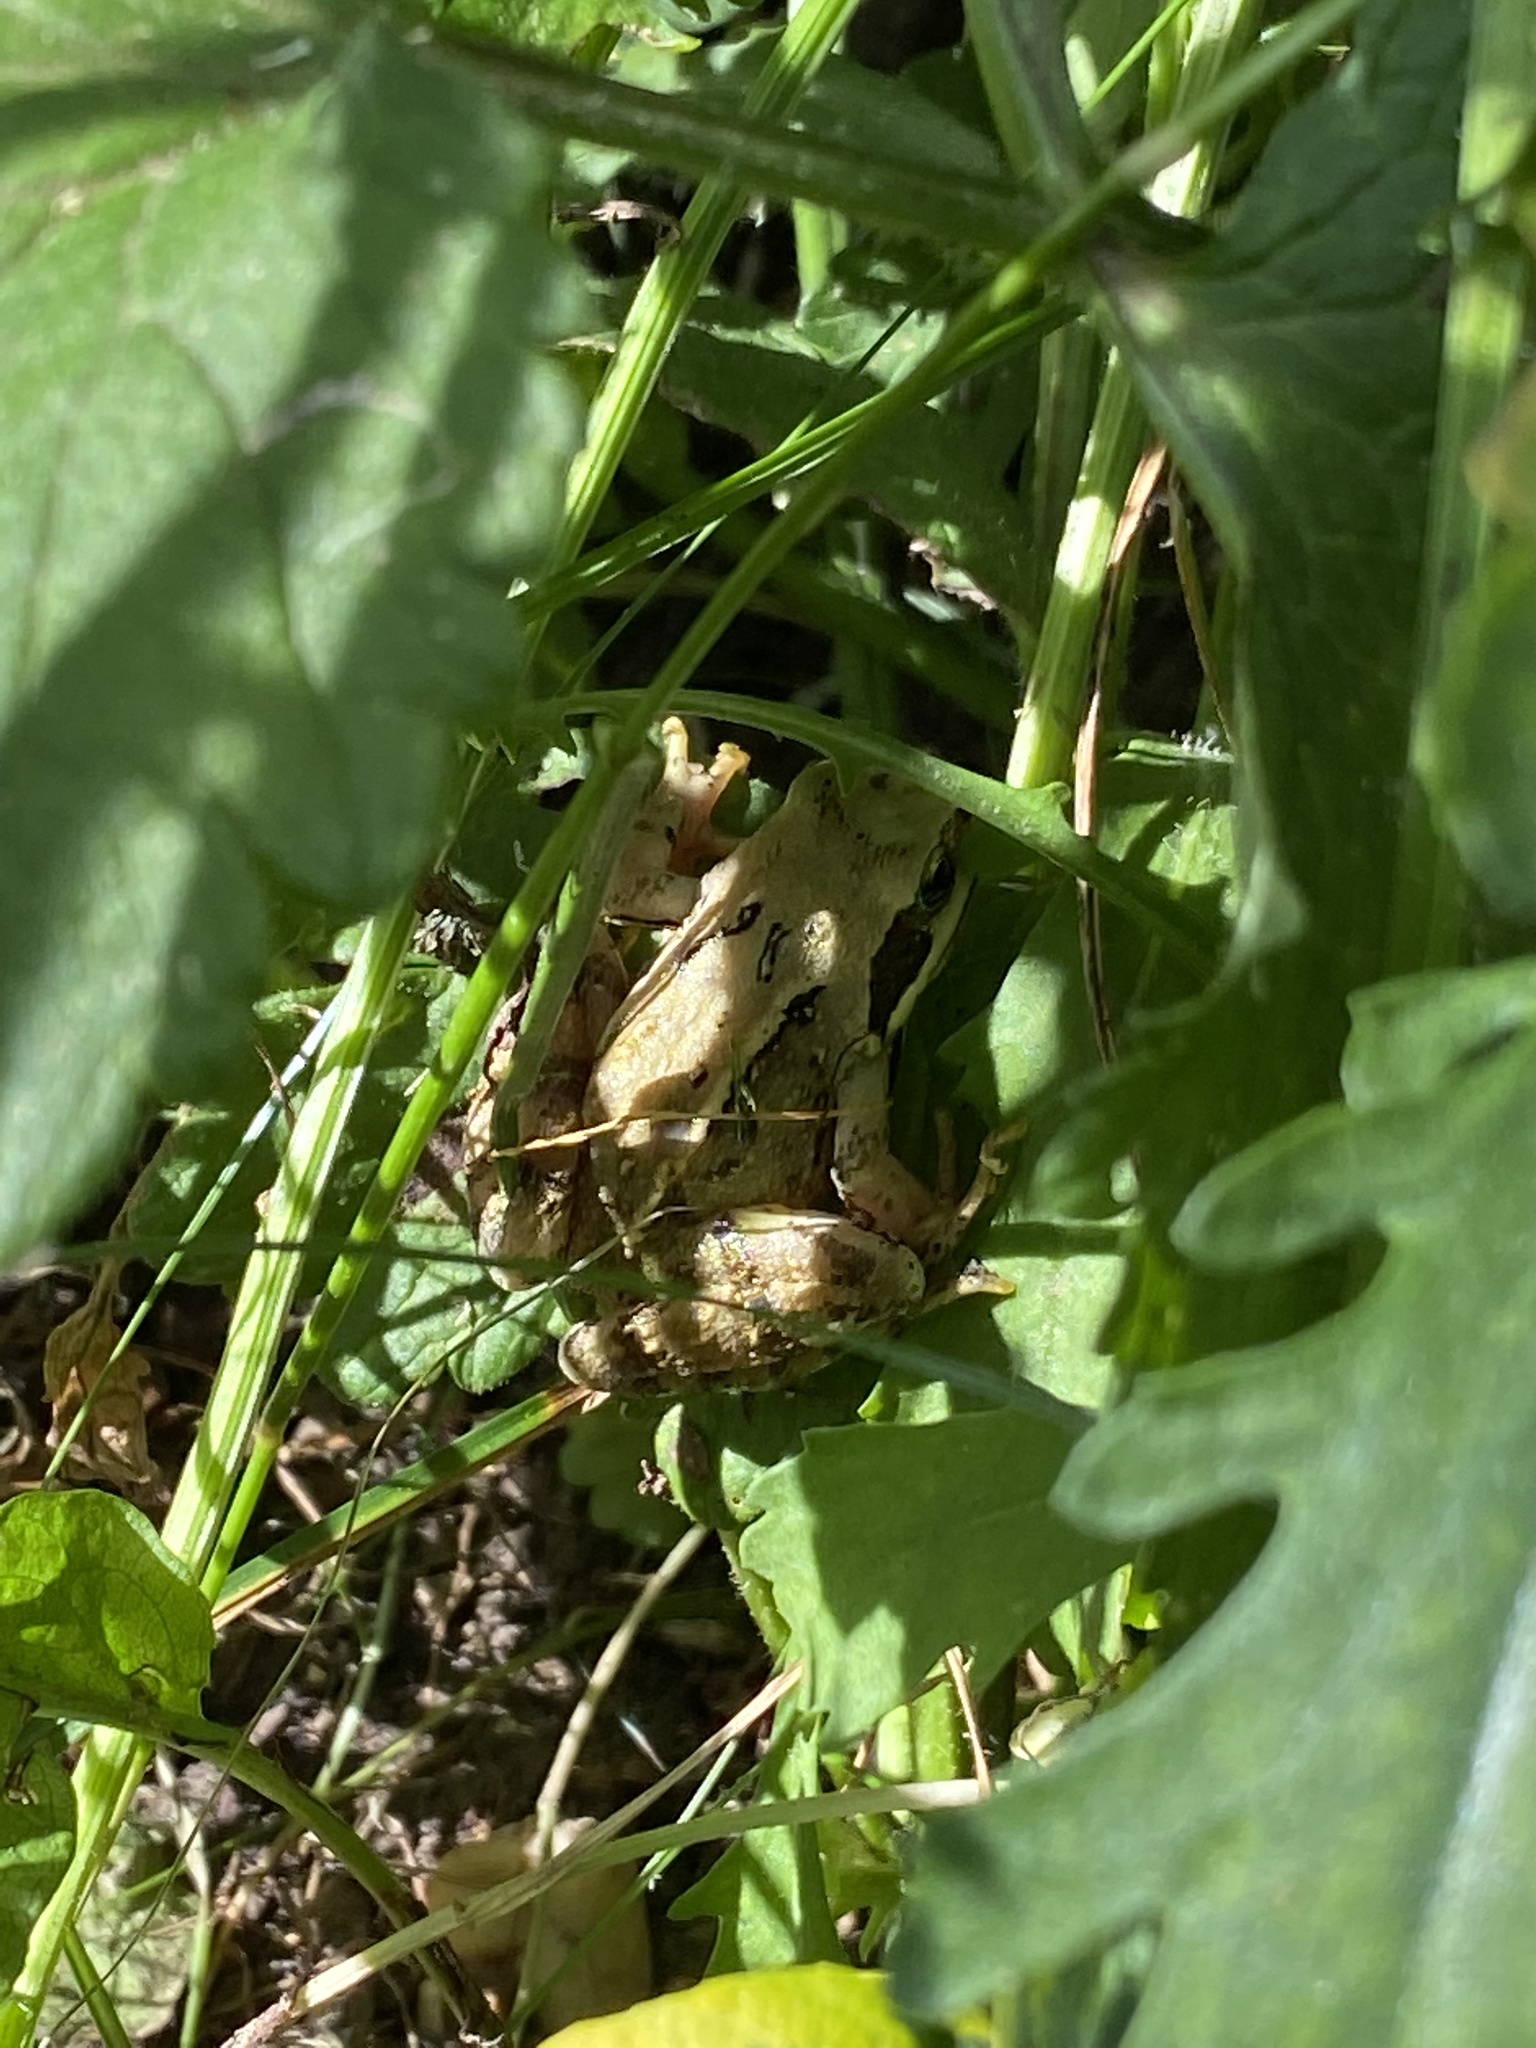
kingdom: Animalia
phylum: Chordata
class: Amphibia
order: Anura
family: Ranidae
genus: Rana
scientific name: Rana temporaria
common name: Common frog
